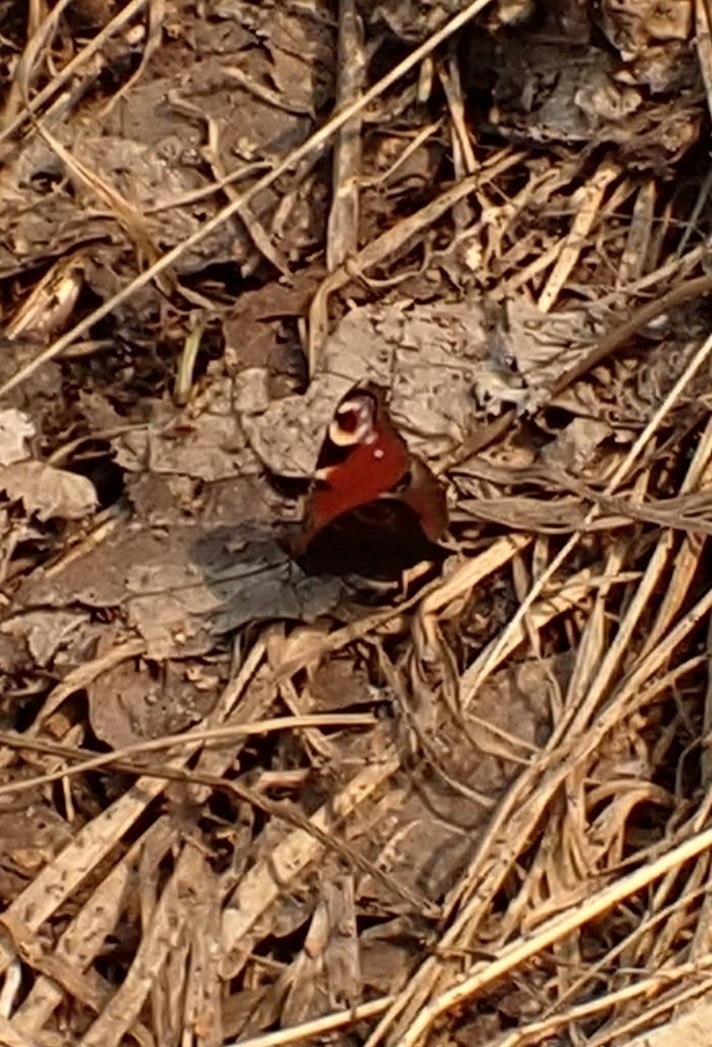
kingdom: Animalia
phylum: Arthropoda
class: Insecta
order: Lepidoptera
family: Nymphalidae
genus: Aglais
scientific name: Aglais io
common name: Peacock
